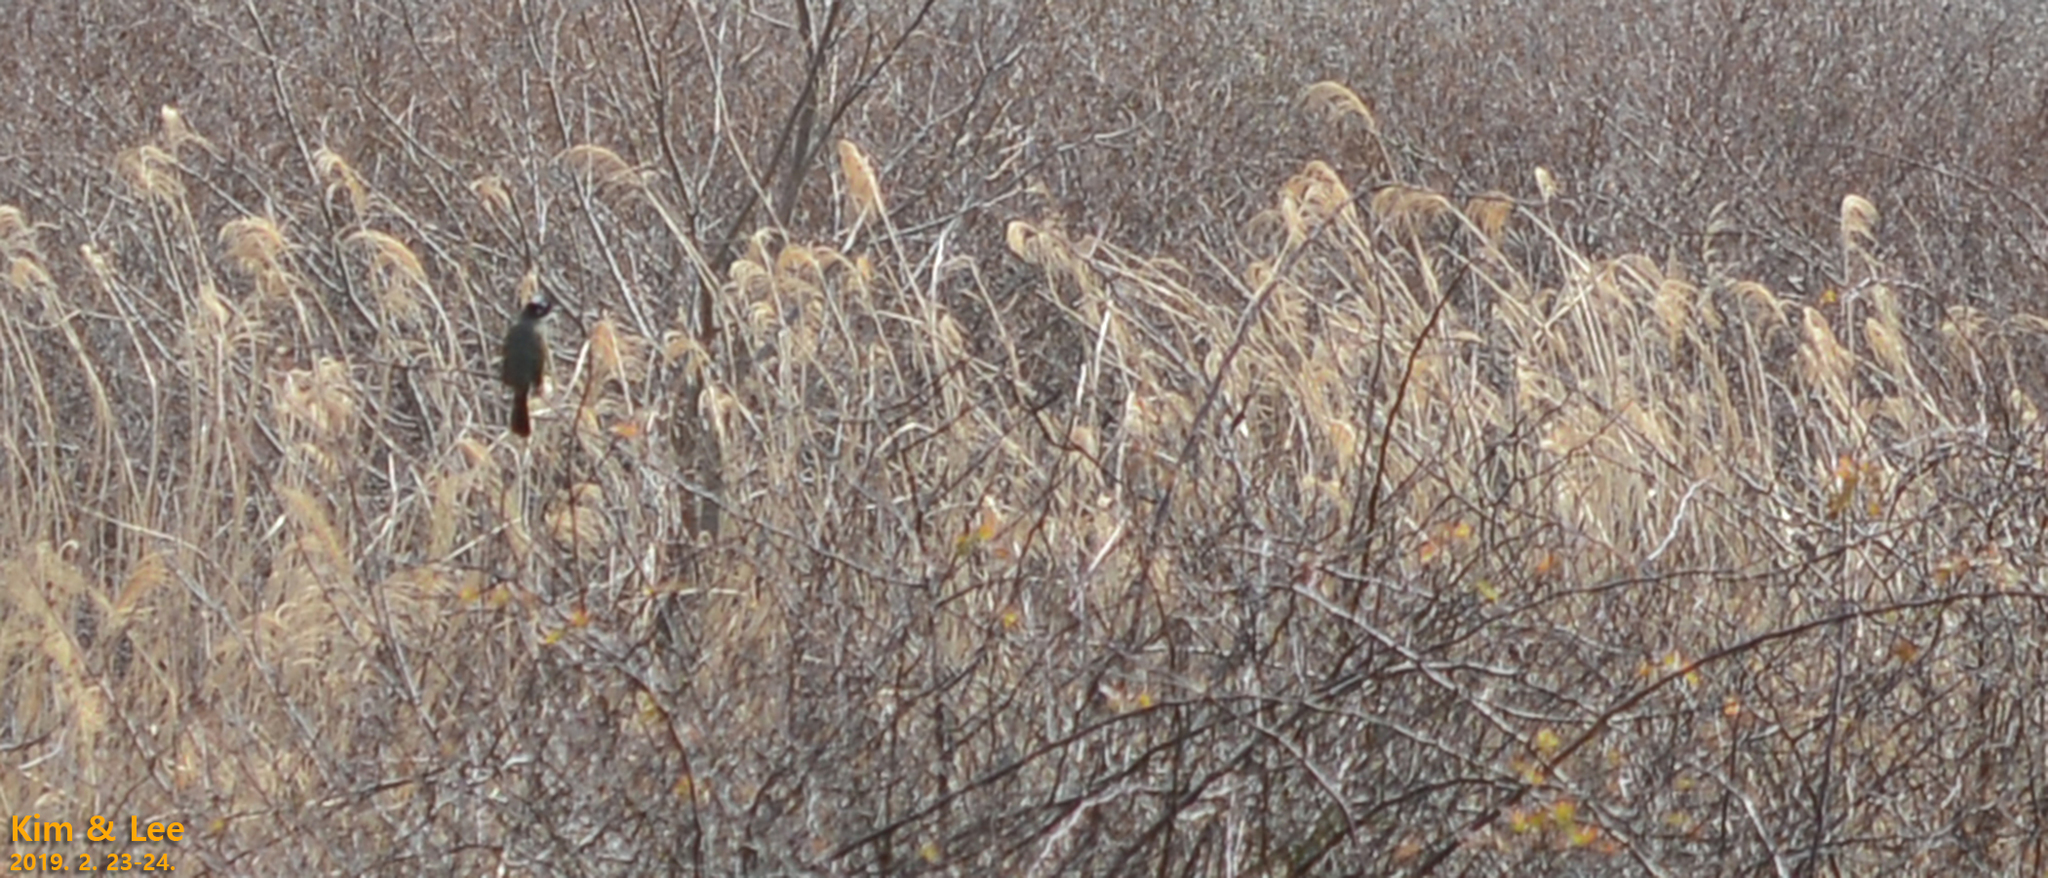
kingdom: Animalia
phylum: Chordata
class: Aves
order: Passeriformes
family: Pycnonotidae
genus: Pycnonotus
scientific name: Pycnonotus sinensis
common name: Light-vented bulbul
